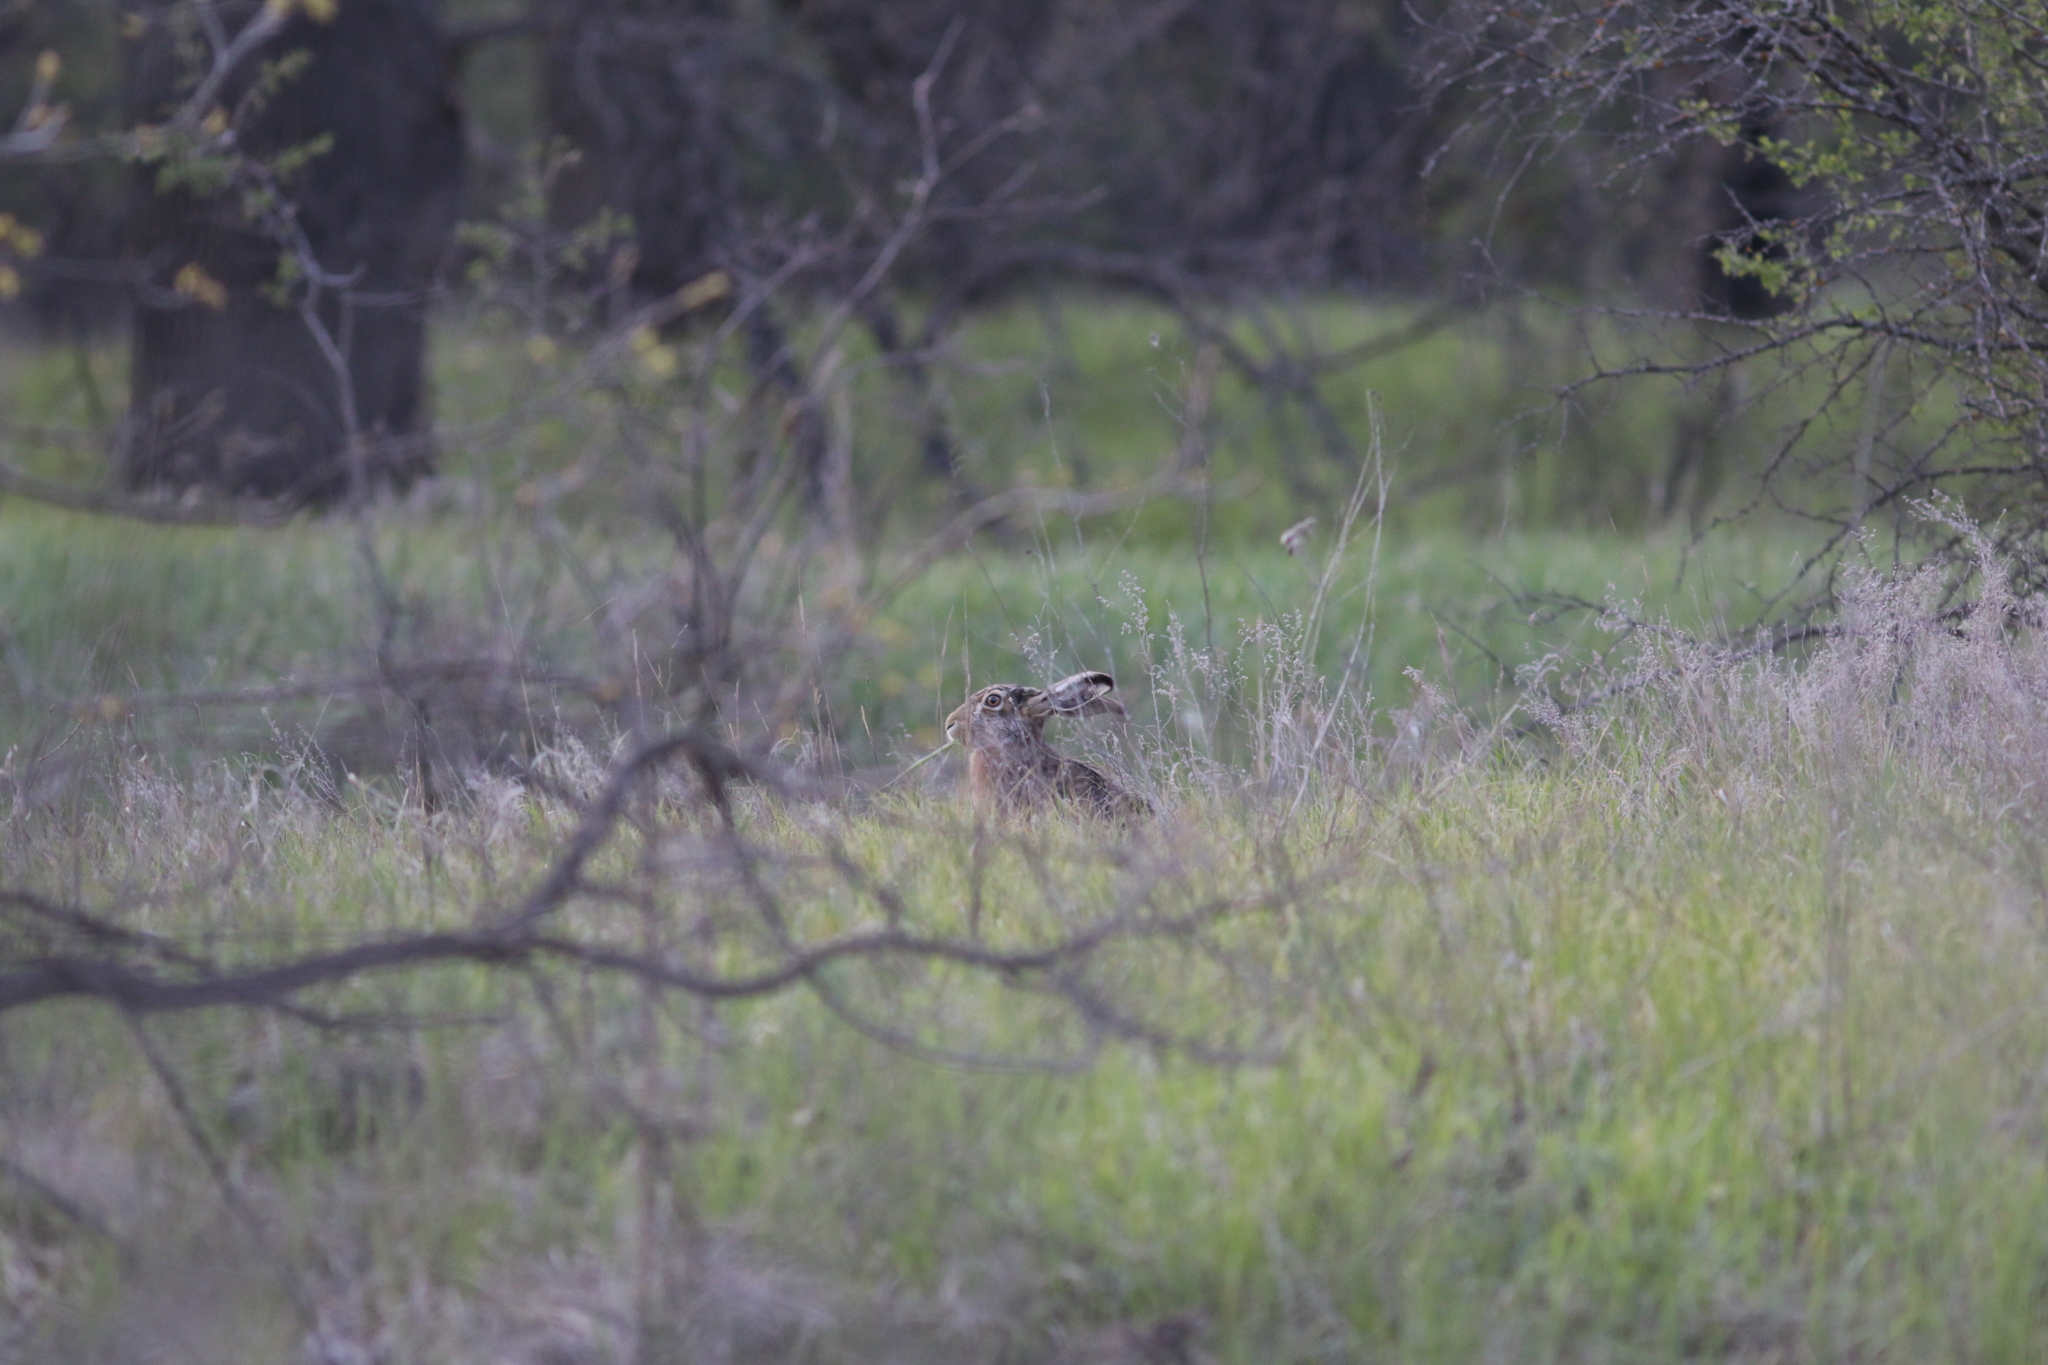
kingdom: Animalia
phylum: Chordata
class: Mammalia
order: Lagomorpha
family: Leporidae
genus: Lepus
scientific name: Lepus europaeus
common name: European hare
